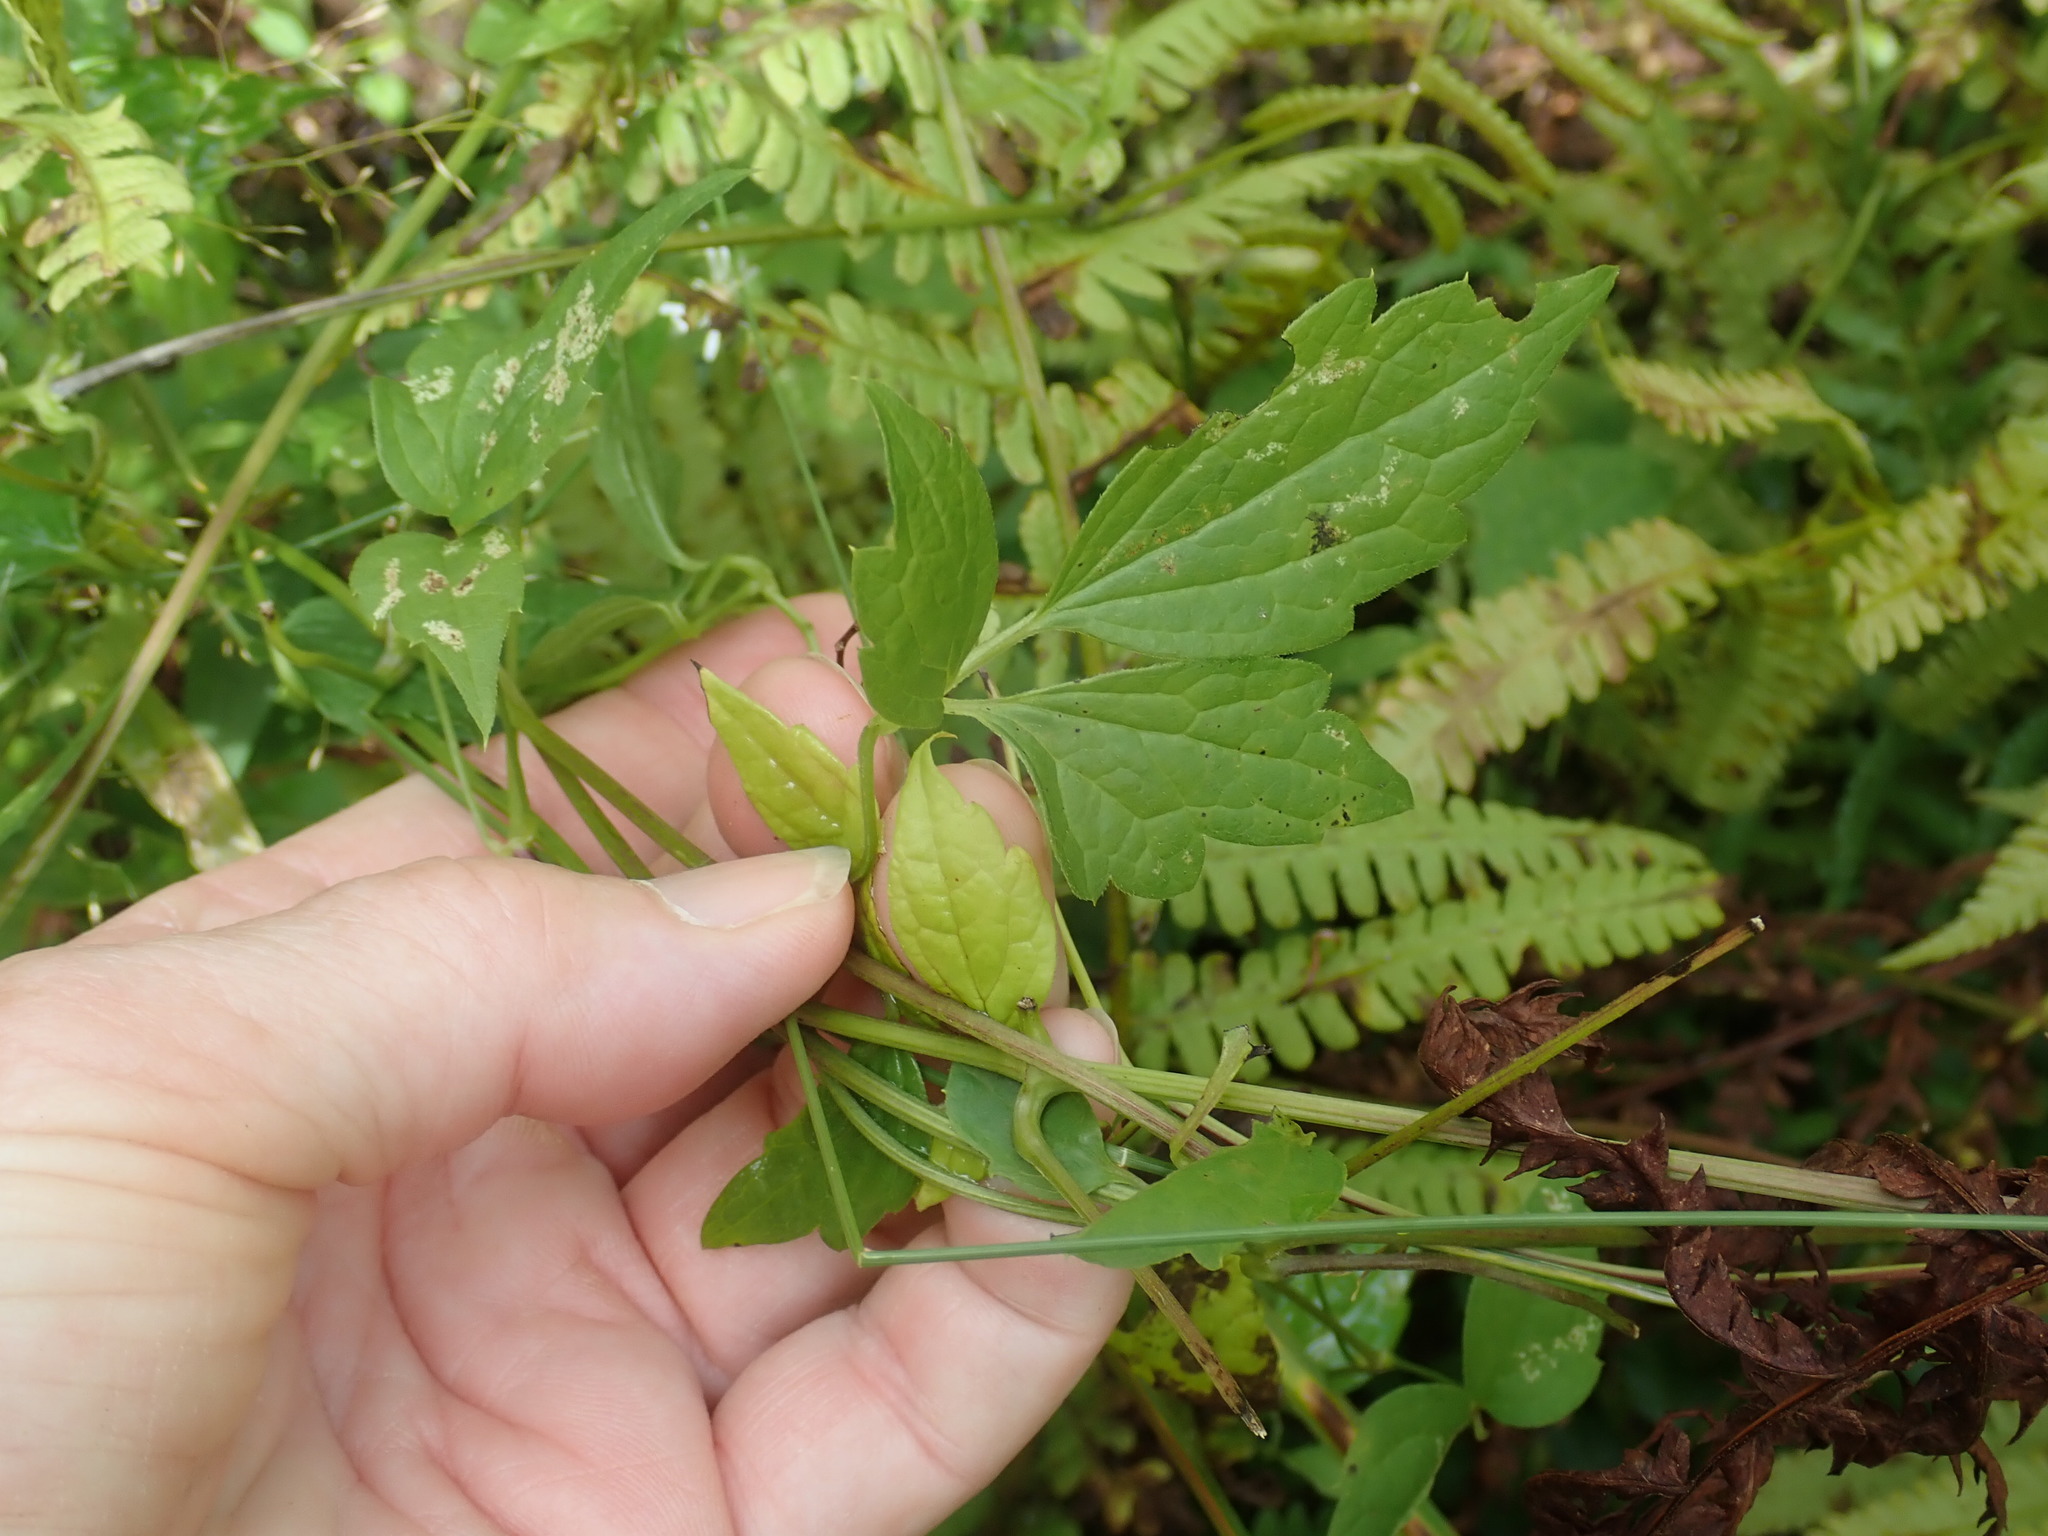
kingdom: Plantae
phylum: Tracheophyta
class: Magnoliopsida
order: Ranunculales
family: Ranunculaceae
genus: Clematis
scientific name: Clematis virginiana
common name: Virgin's-bower
